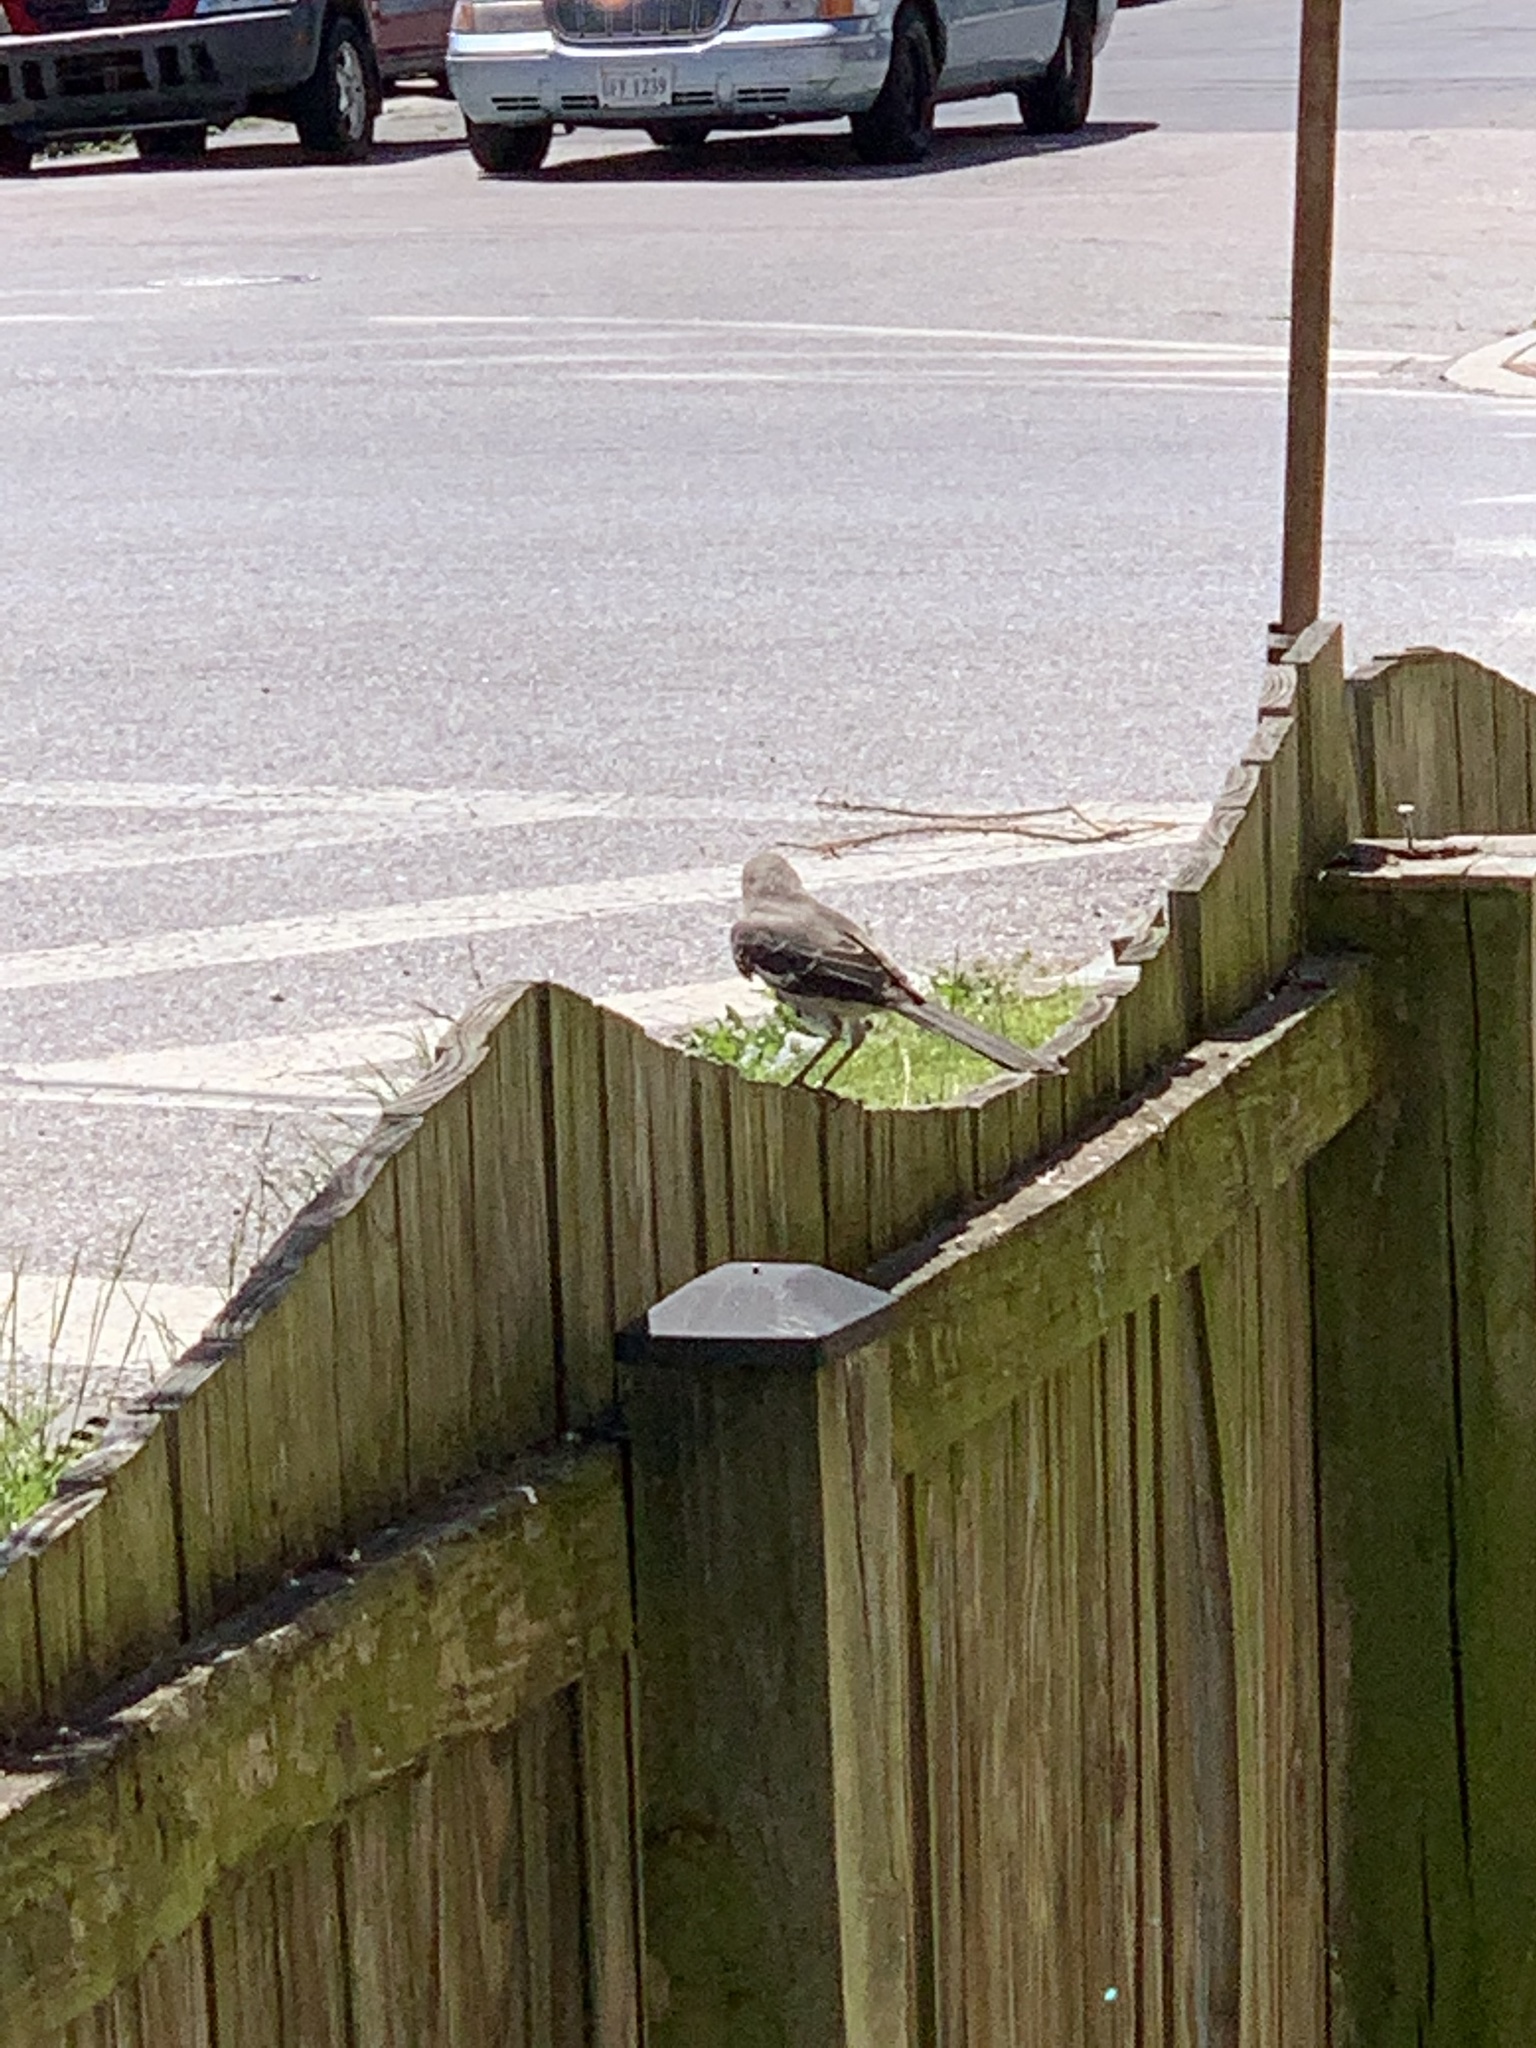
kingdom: Animalia
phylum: Chordata
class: Aves
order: Passeriformes
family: Mimidae
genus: Mimus
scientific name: Mimus polyglottos
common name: Northern mockingbird
